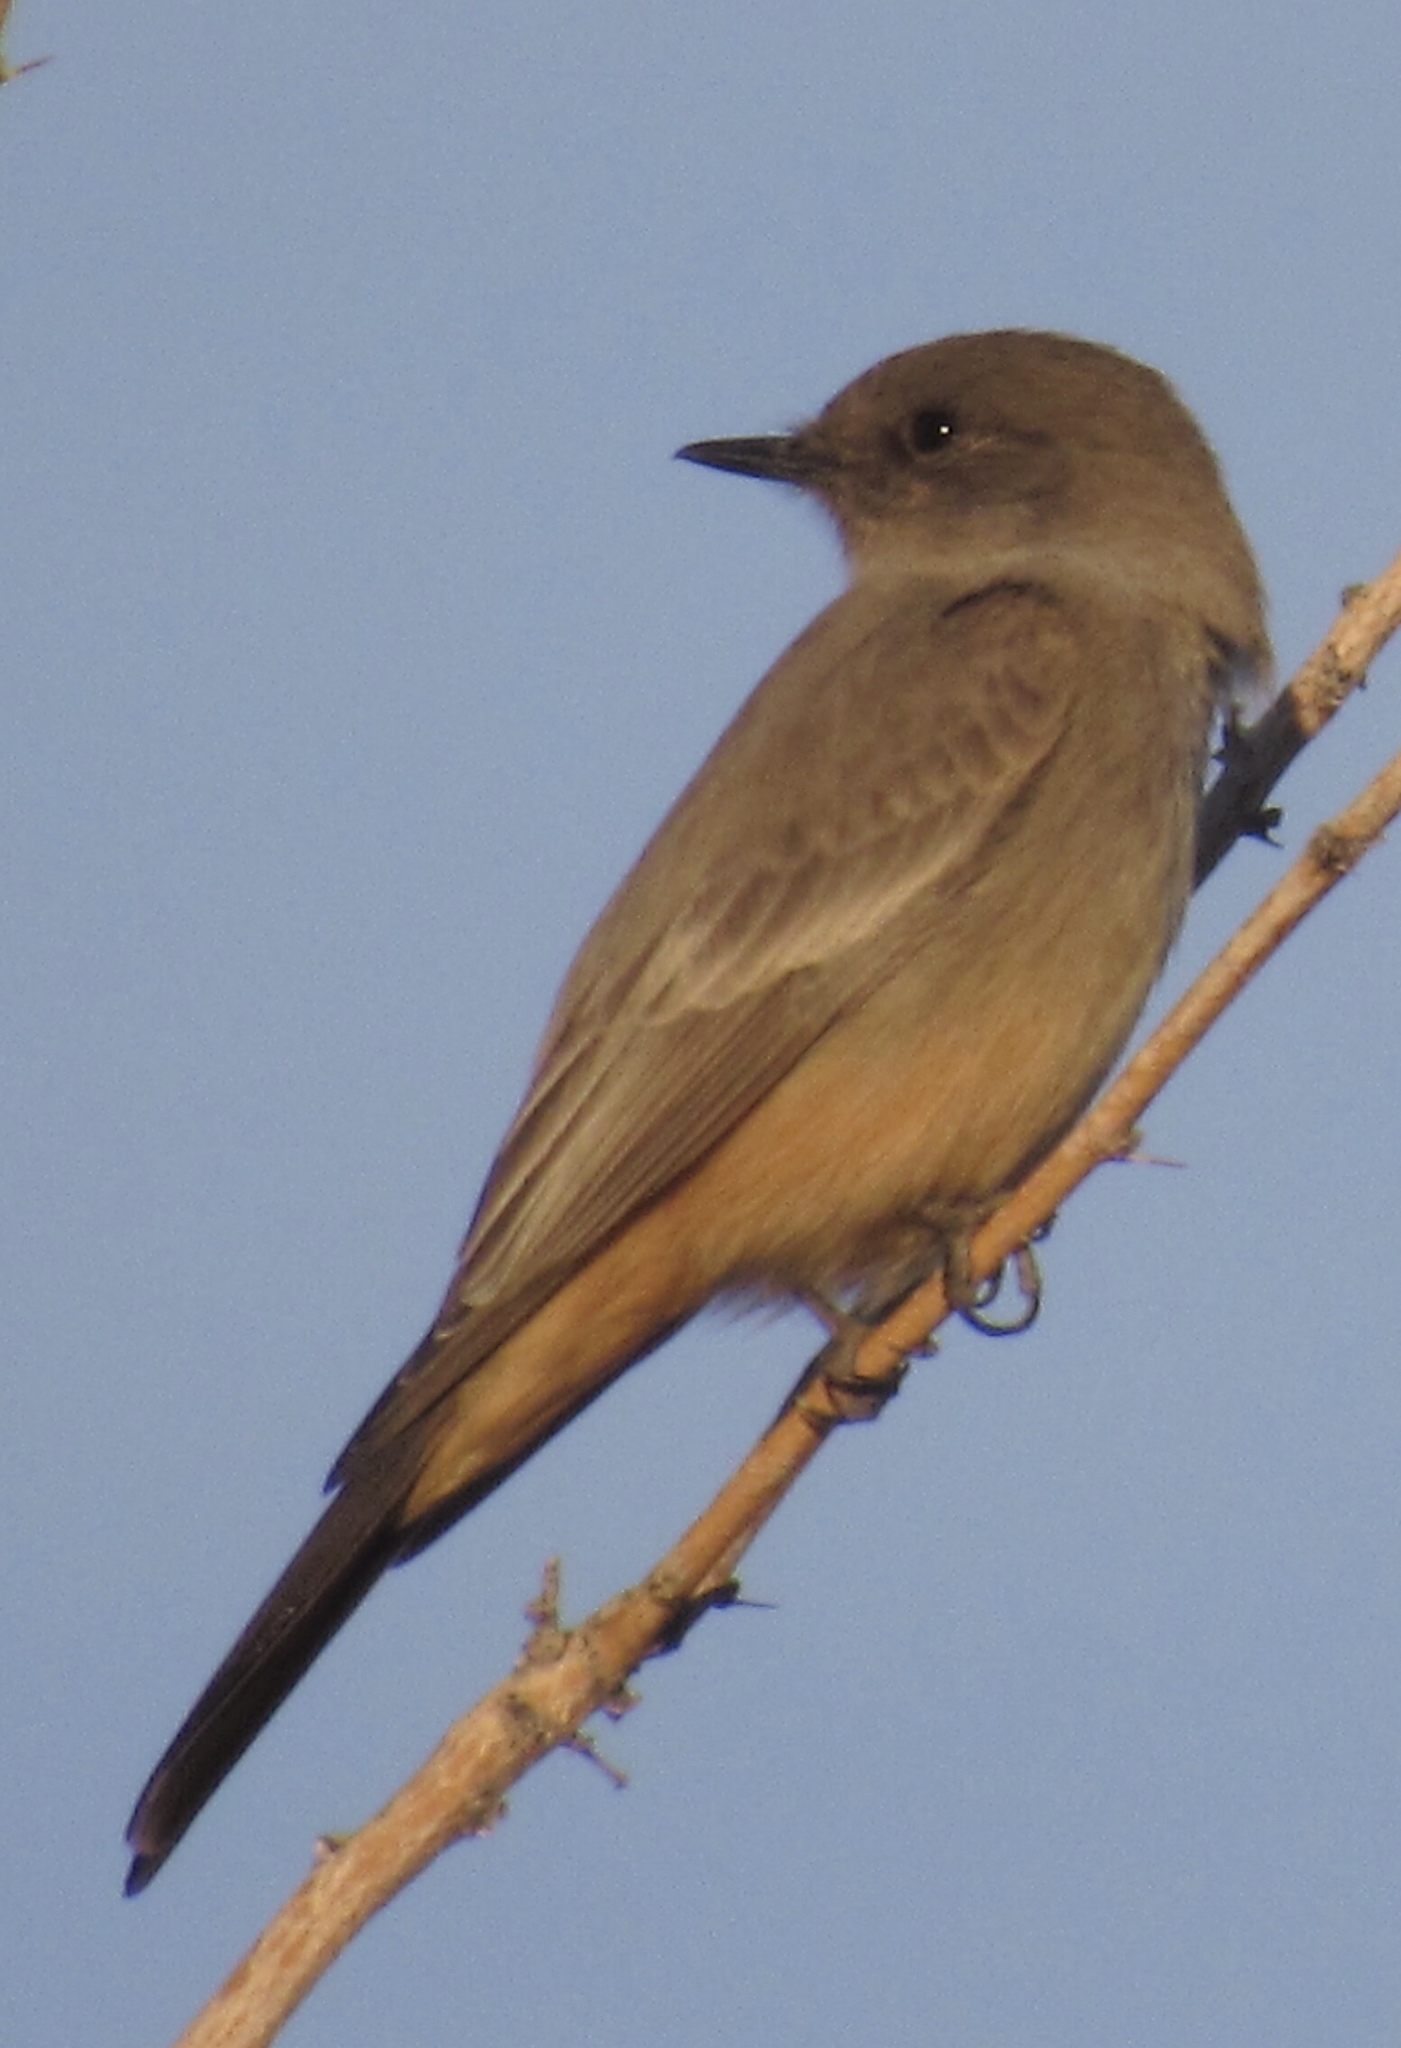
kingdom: Animalia
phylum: Chordata
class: Aves
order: Passeriformes
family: Tyrannidae
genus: Sayornis
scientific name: Sayornis saya
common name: Say's phoebe
